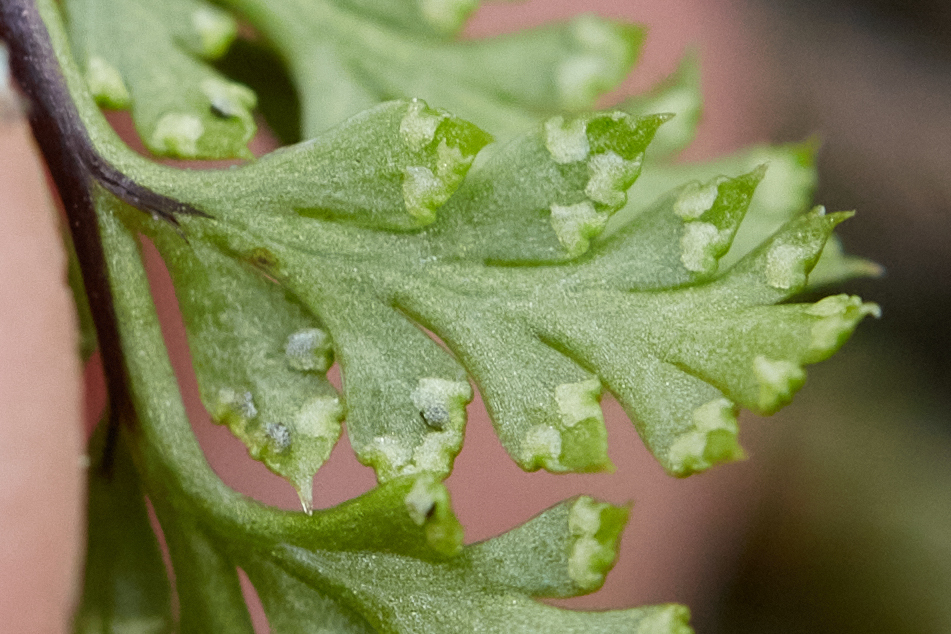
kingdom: Plantae
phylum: Tracheophyta
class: Polypodiopsida
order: Polypodiales
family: Pteridaceae
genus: Aspidotis
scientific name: Aspidotis californica
